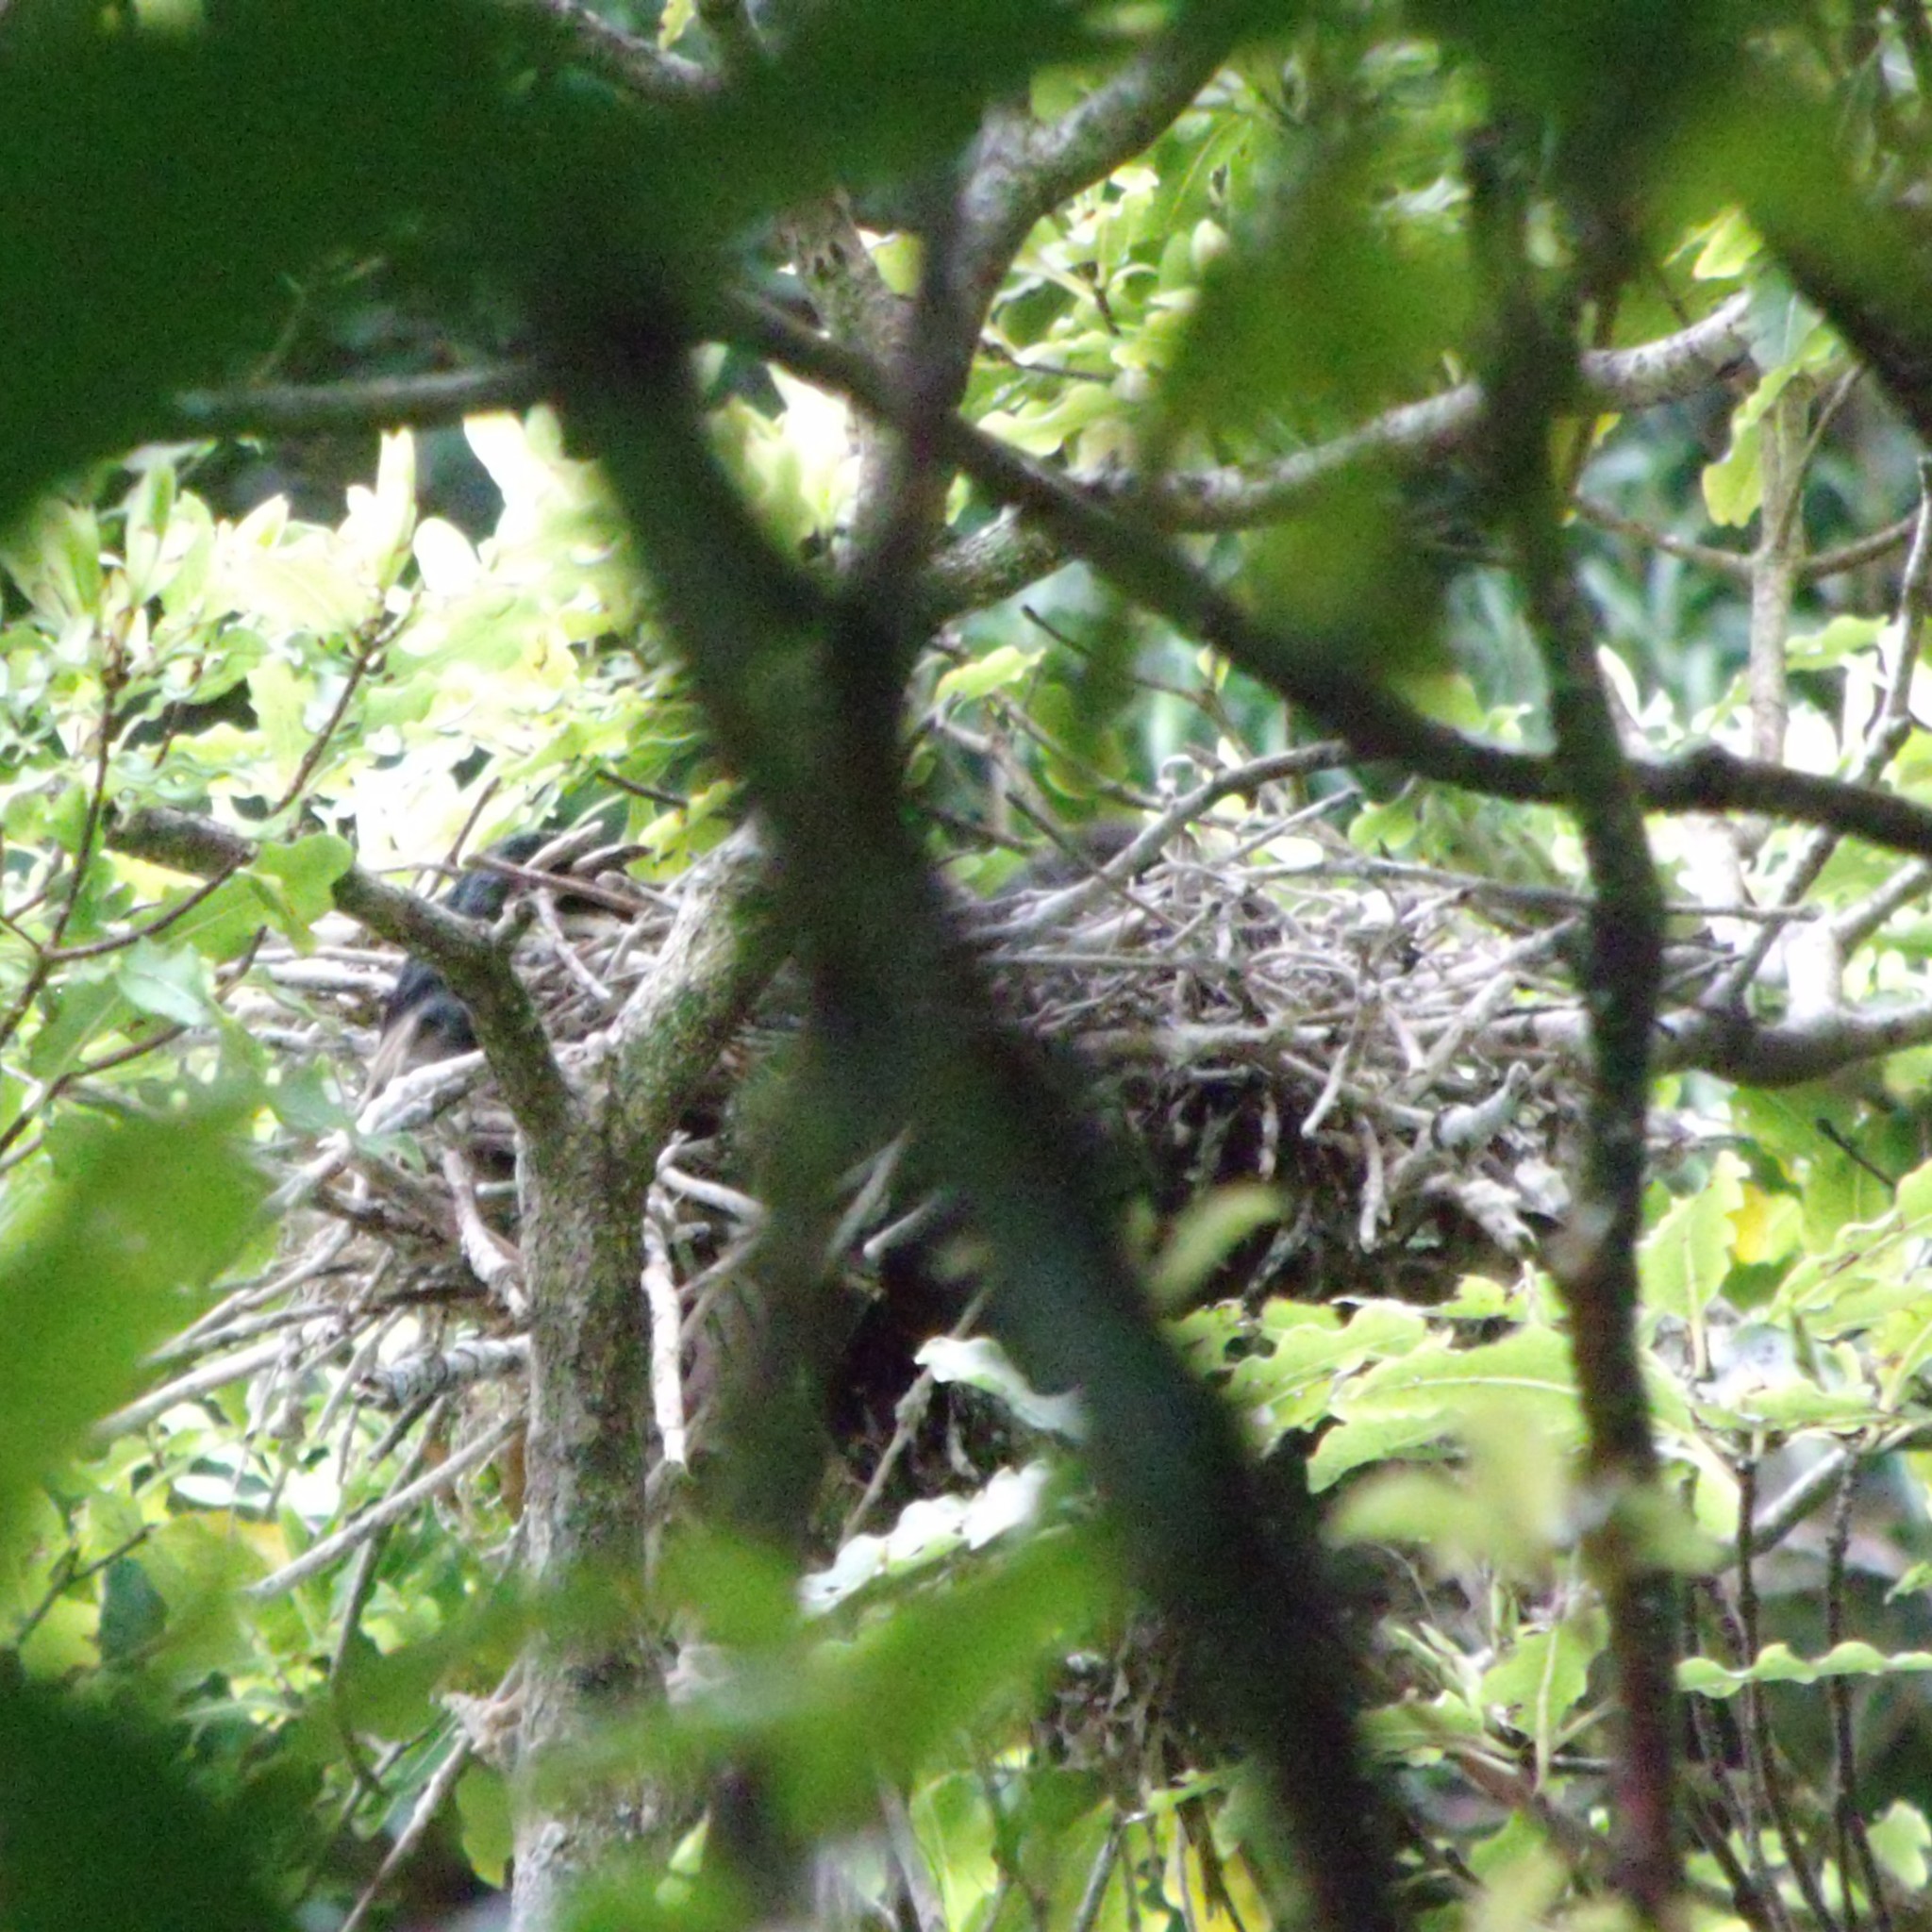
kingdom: Animalia
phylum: Chordata
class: Aves
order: Suliformes
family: Phalacrocoracidae
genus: Microcarbo
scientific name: Microcarbo melanoleucos
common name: Little pied cormorant
